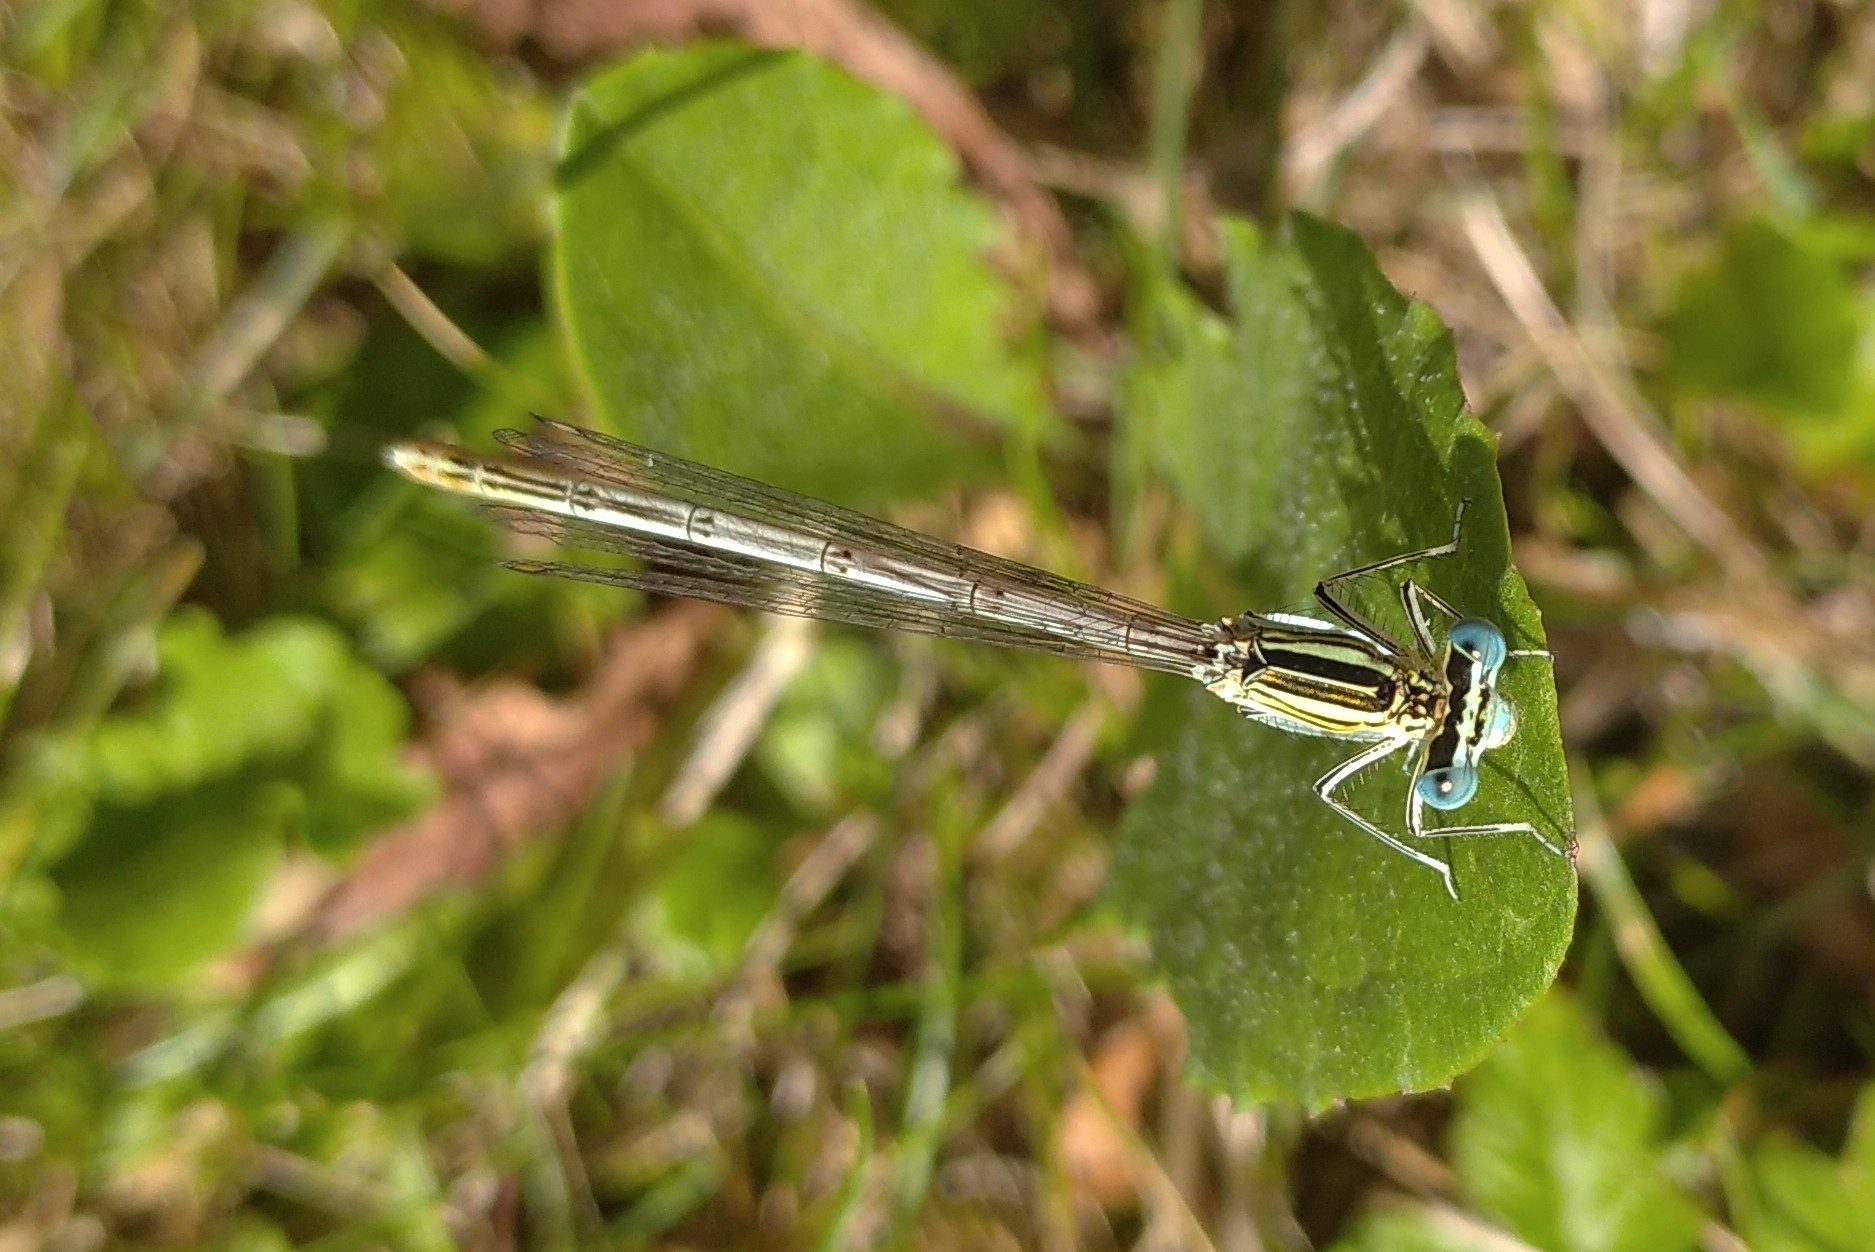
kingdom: Animalia
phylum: Arthropoda
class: Insecta
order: Odonata
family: Platycnemididae
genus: Platycnemis
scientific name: Platycnemis pennipes
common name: White-legged damselfly
